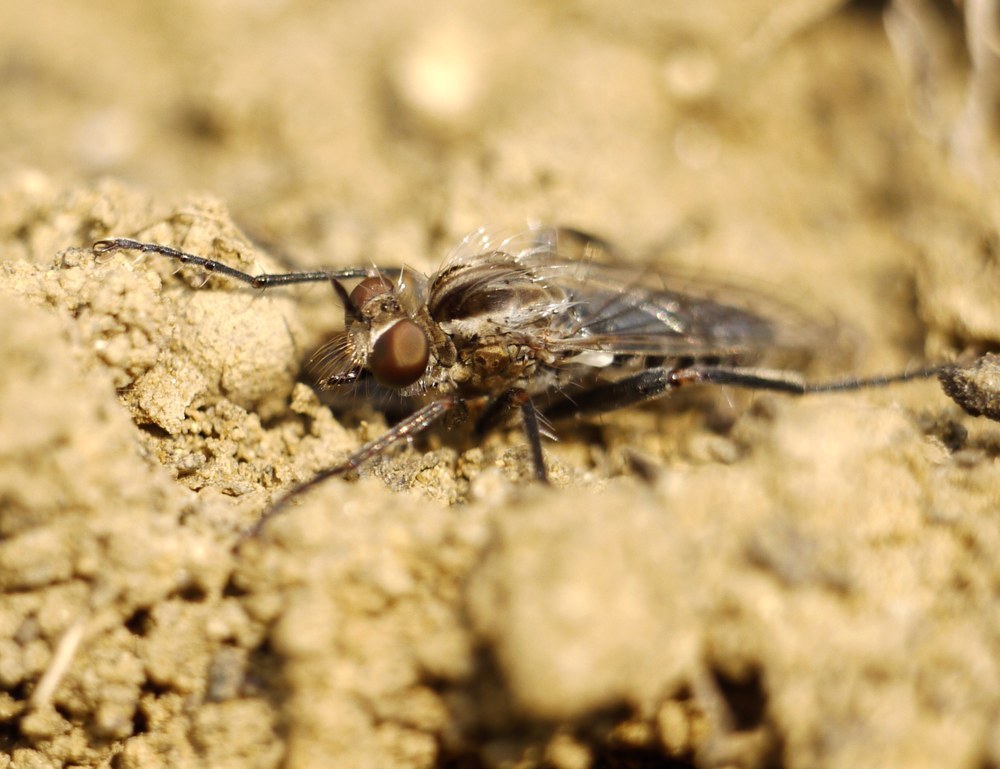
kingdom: Animalia
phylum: Arthropoda
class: Insecta
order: Diptera
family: Asilidae
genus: Paraphamartania
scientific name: Paraphamartania syriaca
